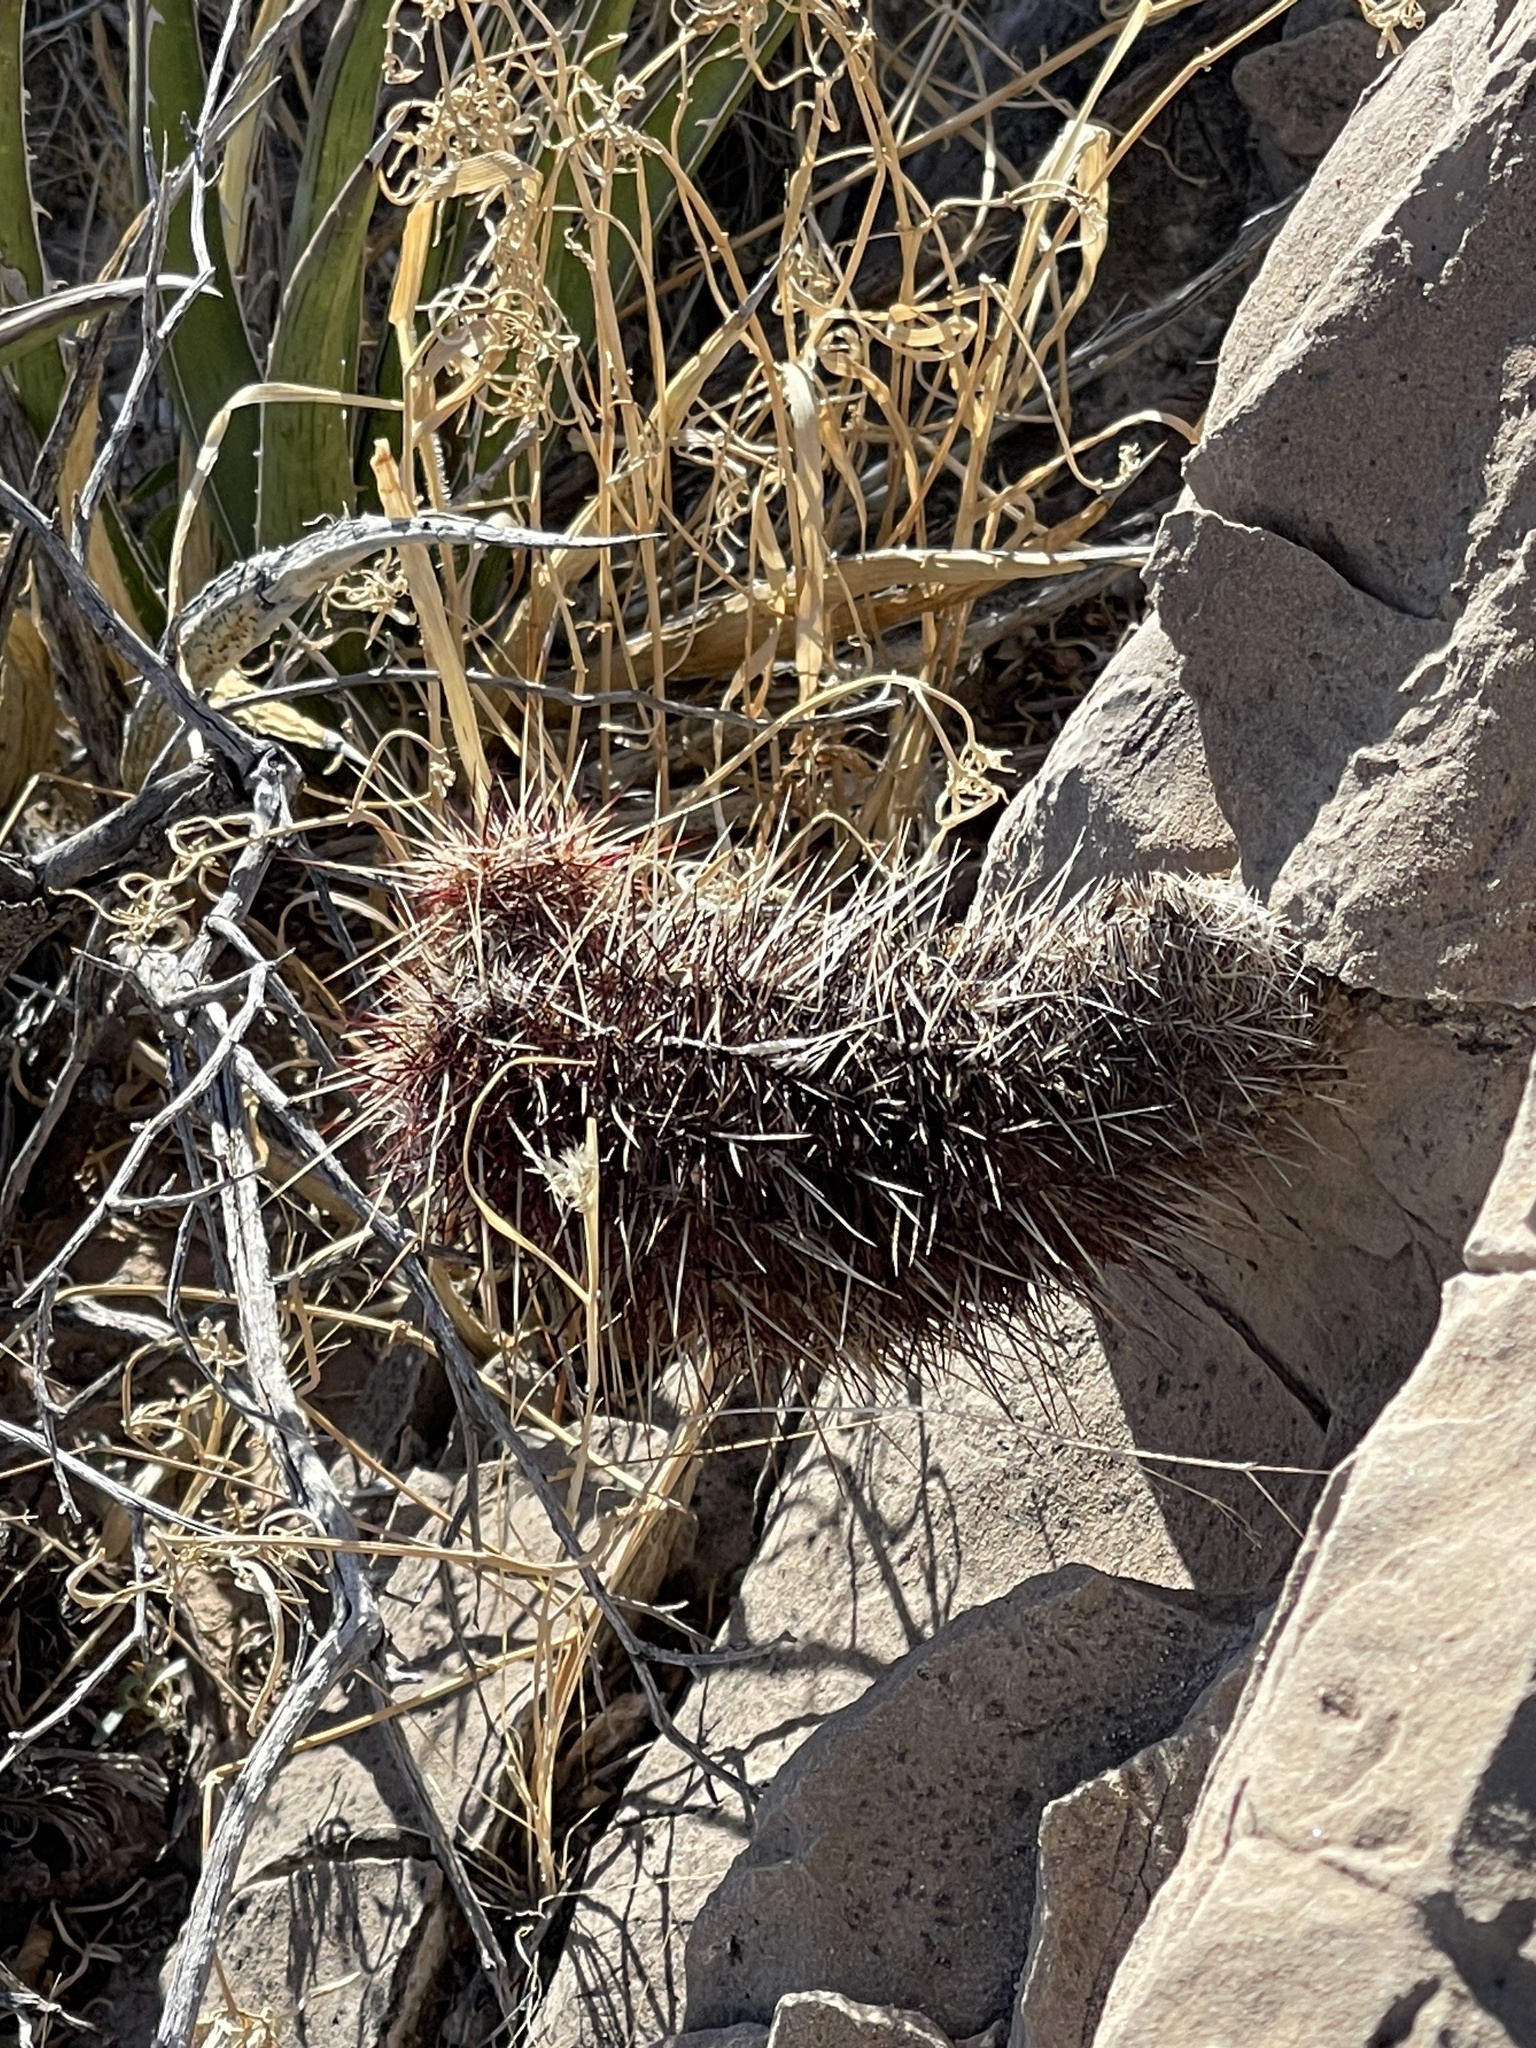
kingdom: Plantae
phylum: Tracheophyta
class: Magnoliopsida
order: Caryophyllales
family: Cactaceae
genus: Echinocereus
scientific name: Echinocereus viridiflorus
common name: Nylon hedgehog cactus
